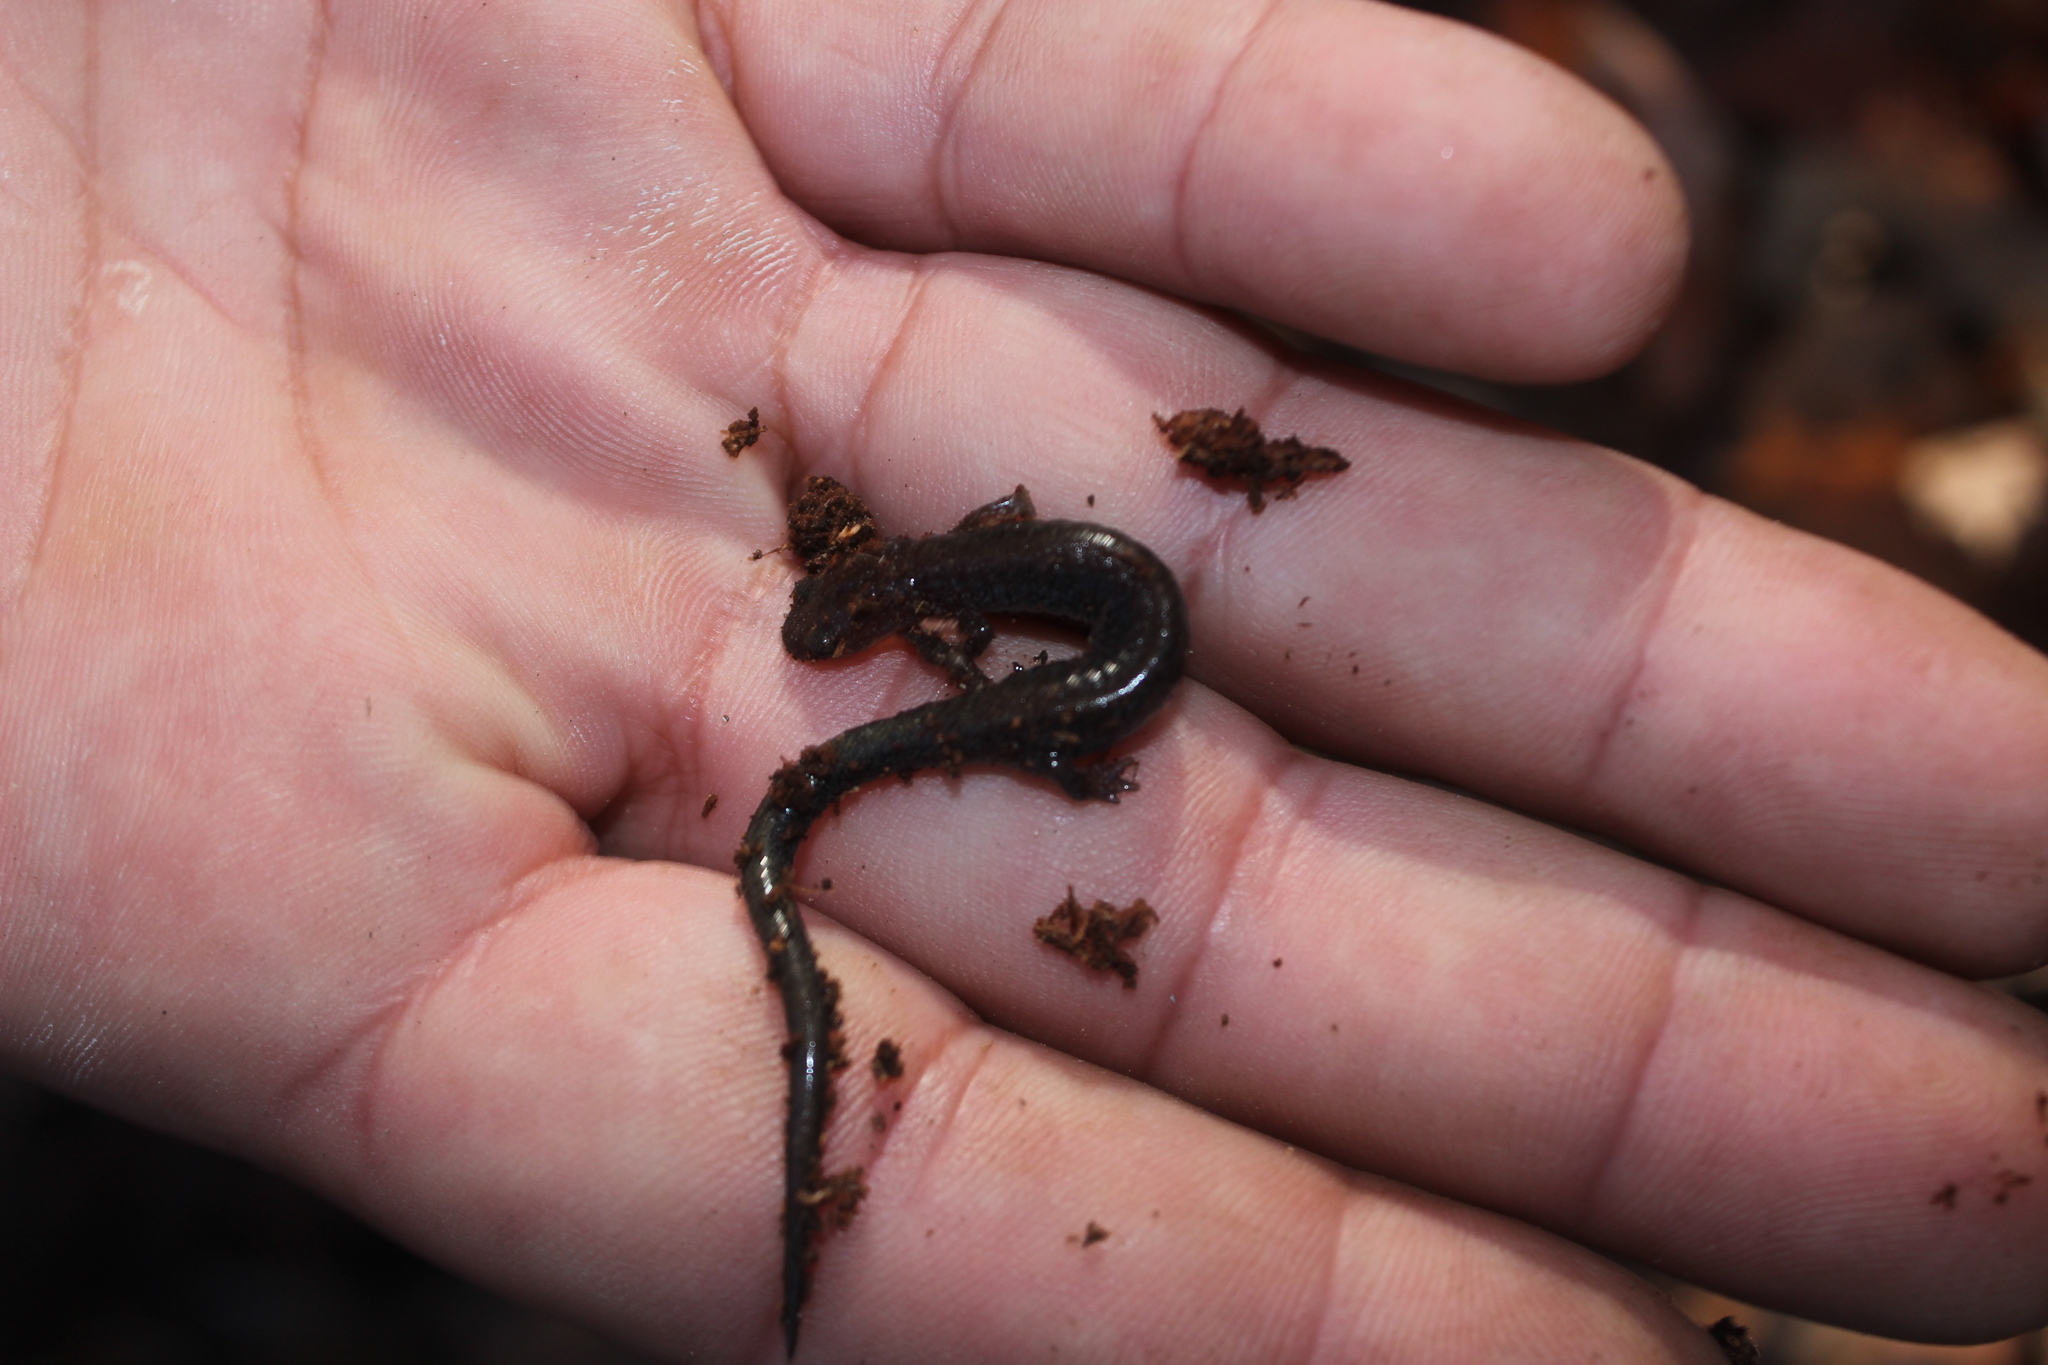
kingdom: Animalia
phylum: Chordata
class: Amphibia
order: Caudata
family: Plethodontidae
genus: Plethodon
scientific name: Plethodon cinereus
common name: Redback salamander
